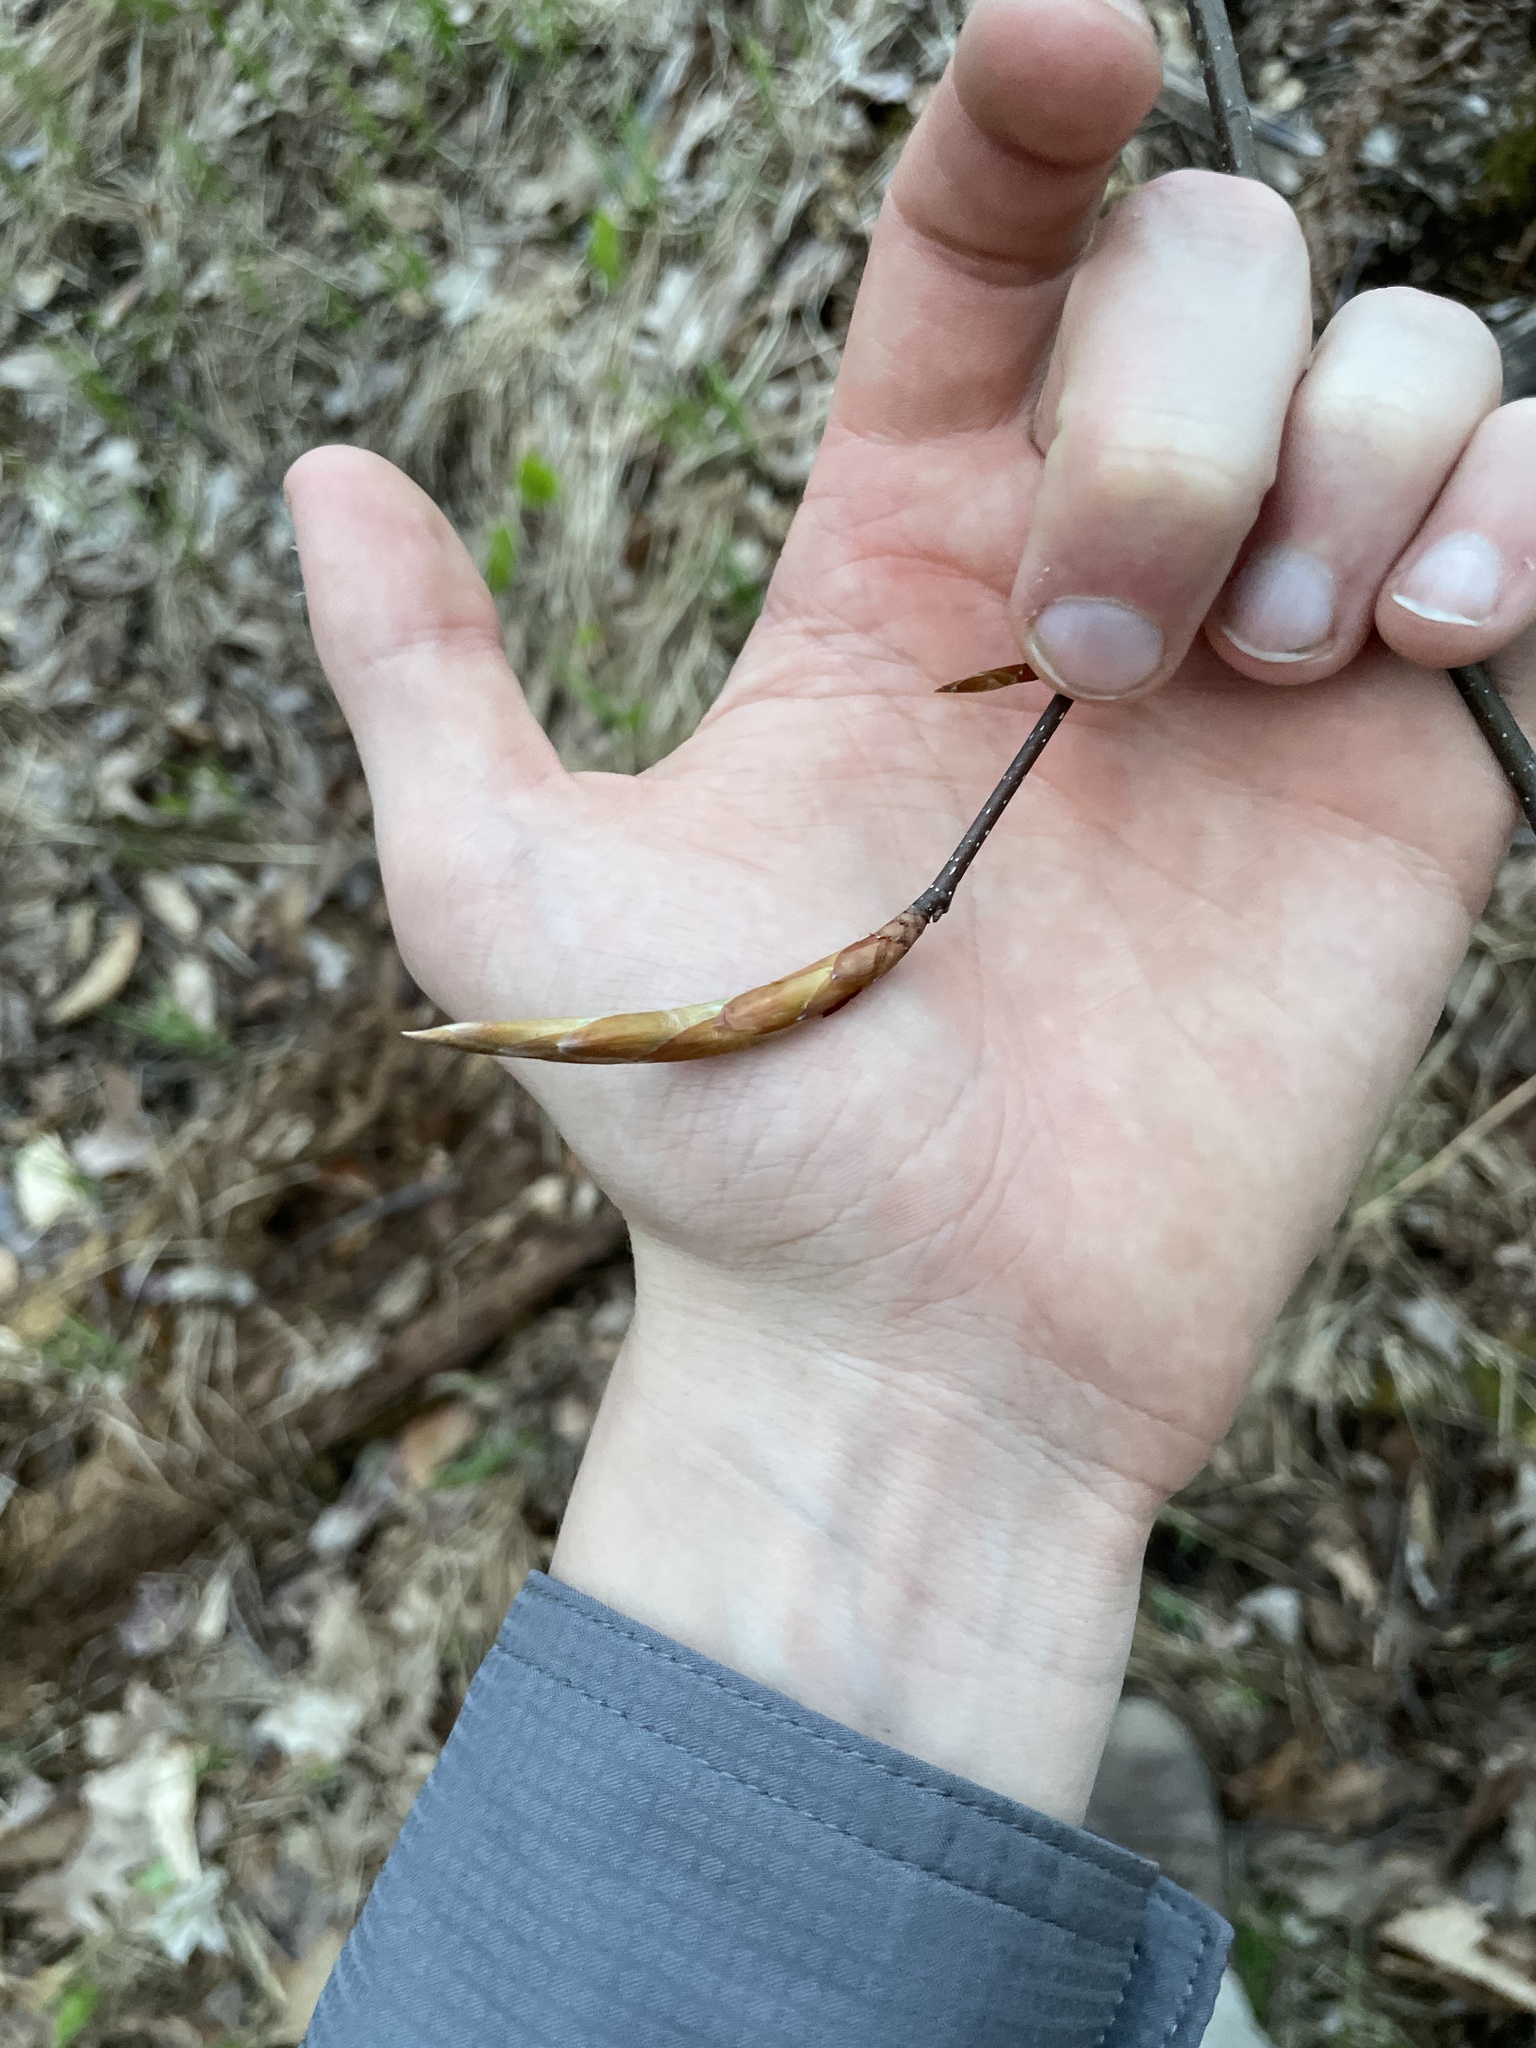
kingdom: Plantae
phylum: Tracheophyta
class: Magnoliopsida
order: Fagales
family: Fagaceae
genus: Fagus
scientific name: Fagus grandifolia
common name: American beech
